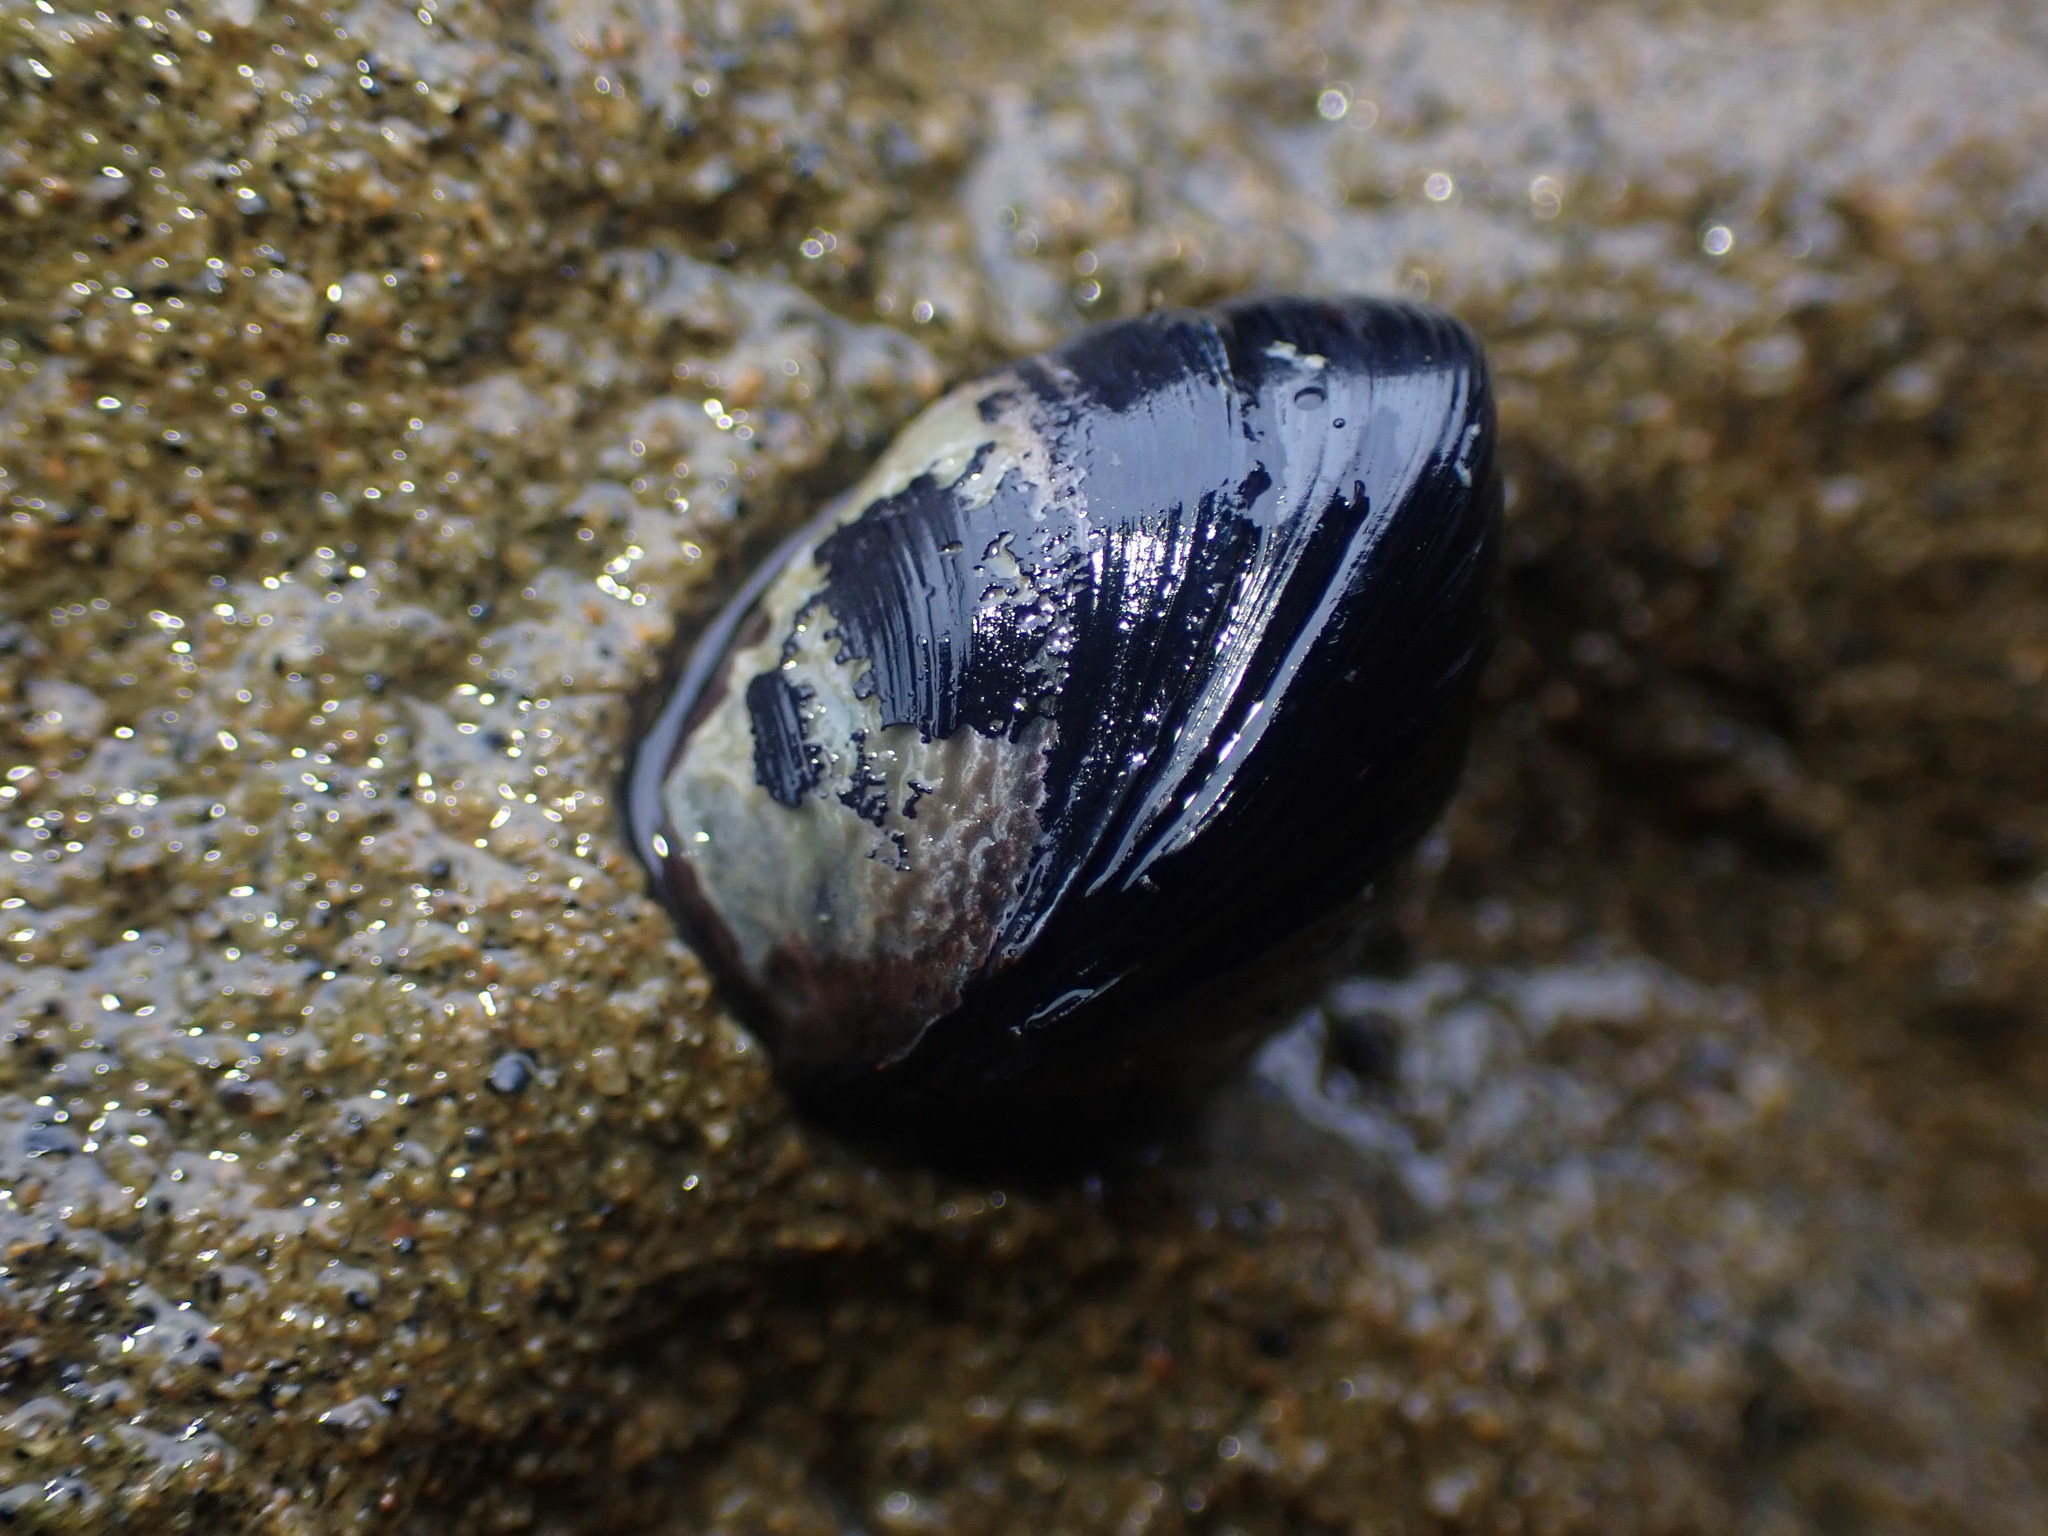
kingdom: Animalia
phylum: Mollusca
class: Bivalvia
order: Mytilida
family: Mytilidae
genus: Xenostrobus
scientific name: Xenostrobus neozelanicus
